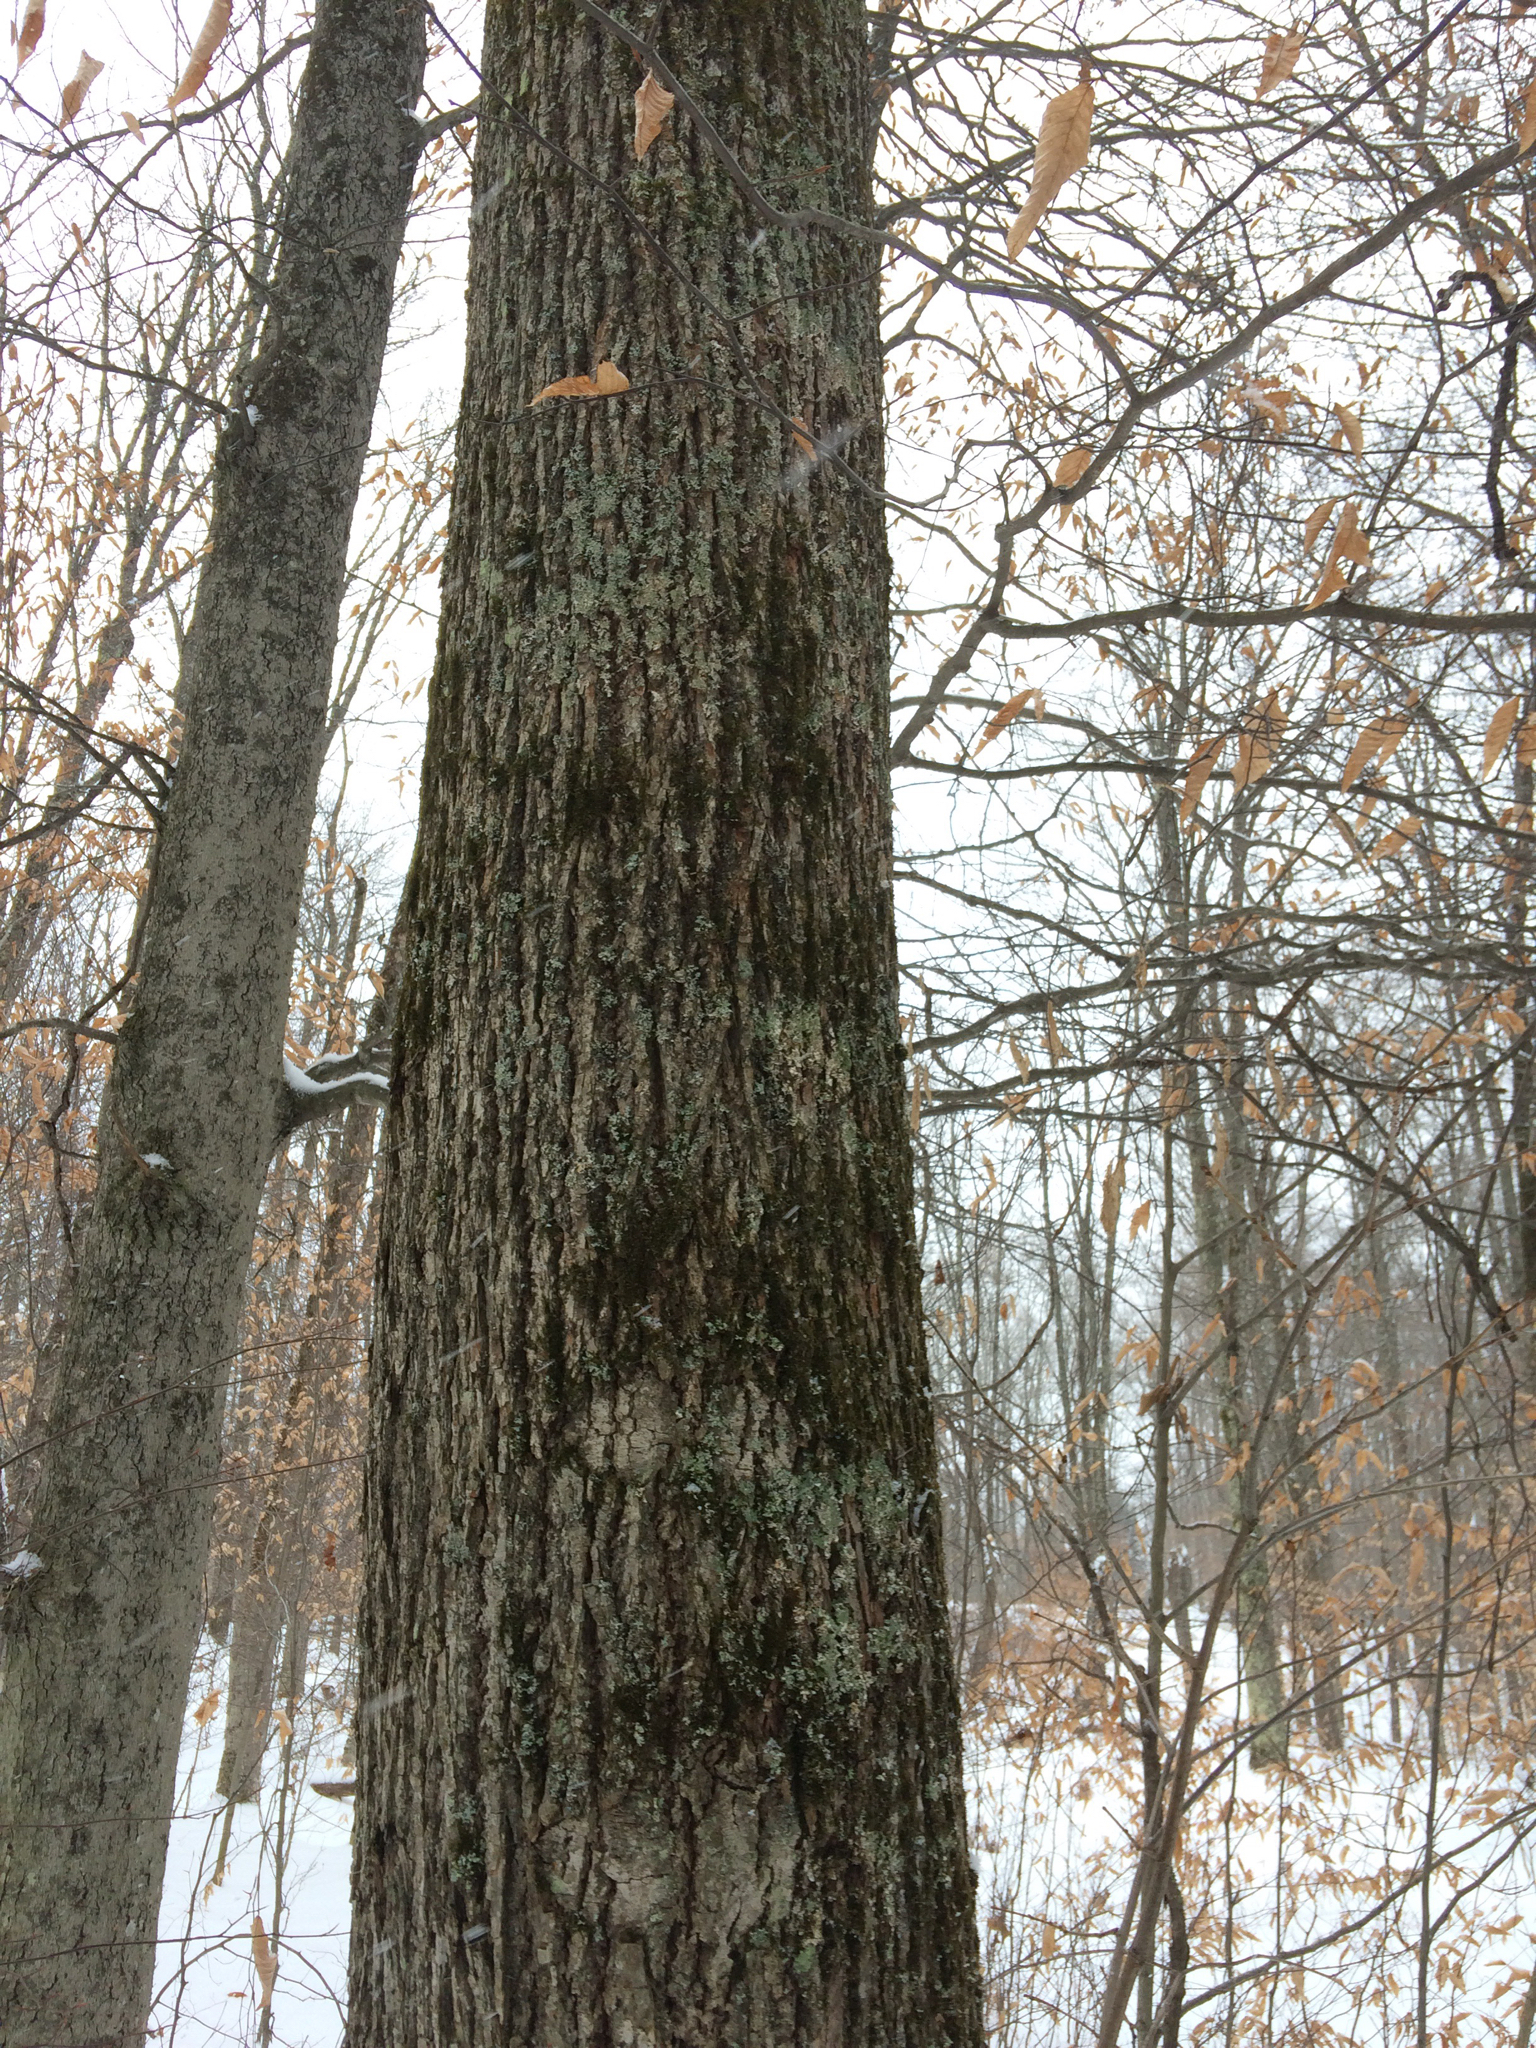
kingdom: Plantae
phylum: Tracheophyta
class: Magnoliopsida
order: Lamiales
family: Oleaceae
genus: Fraxinus
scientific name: Fraxinus americana
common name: White ash
